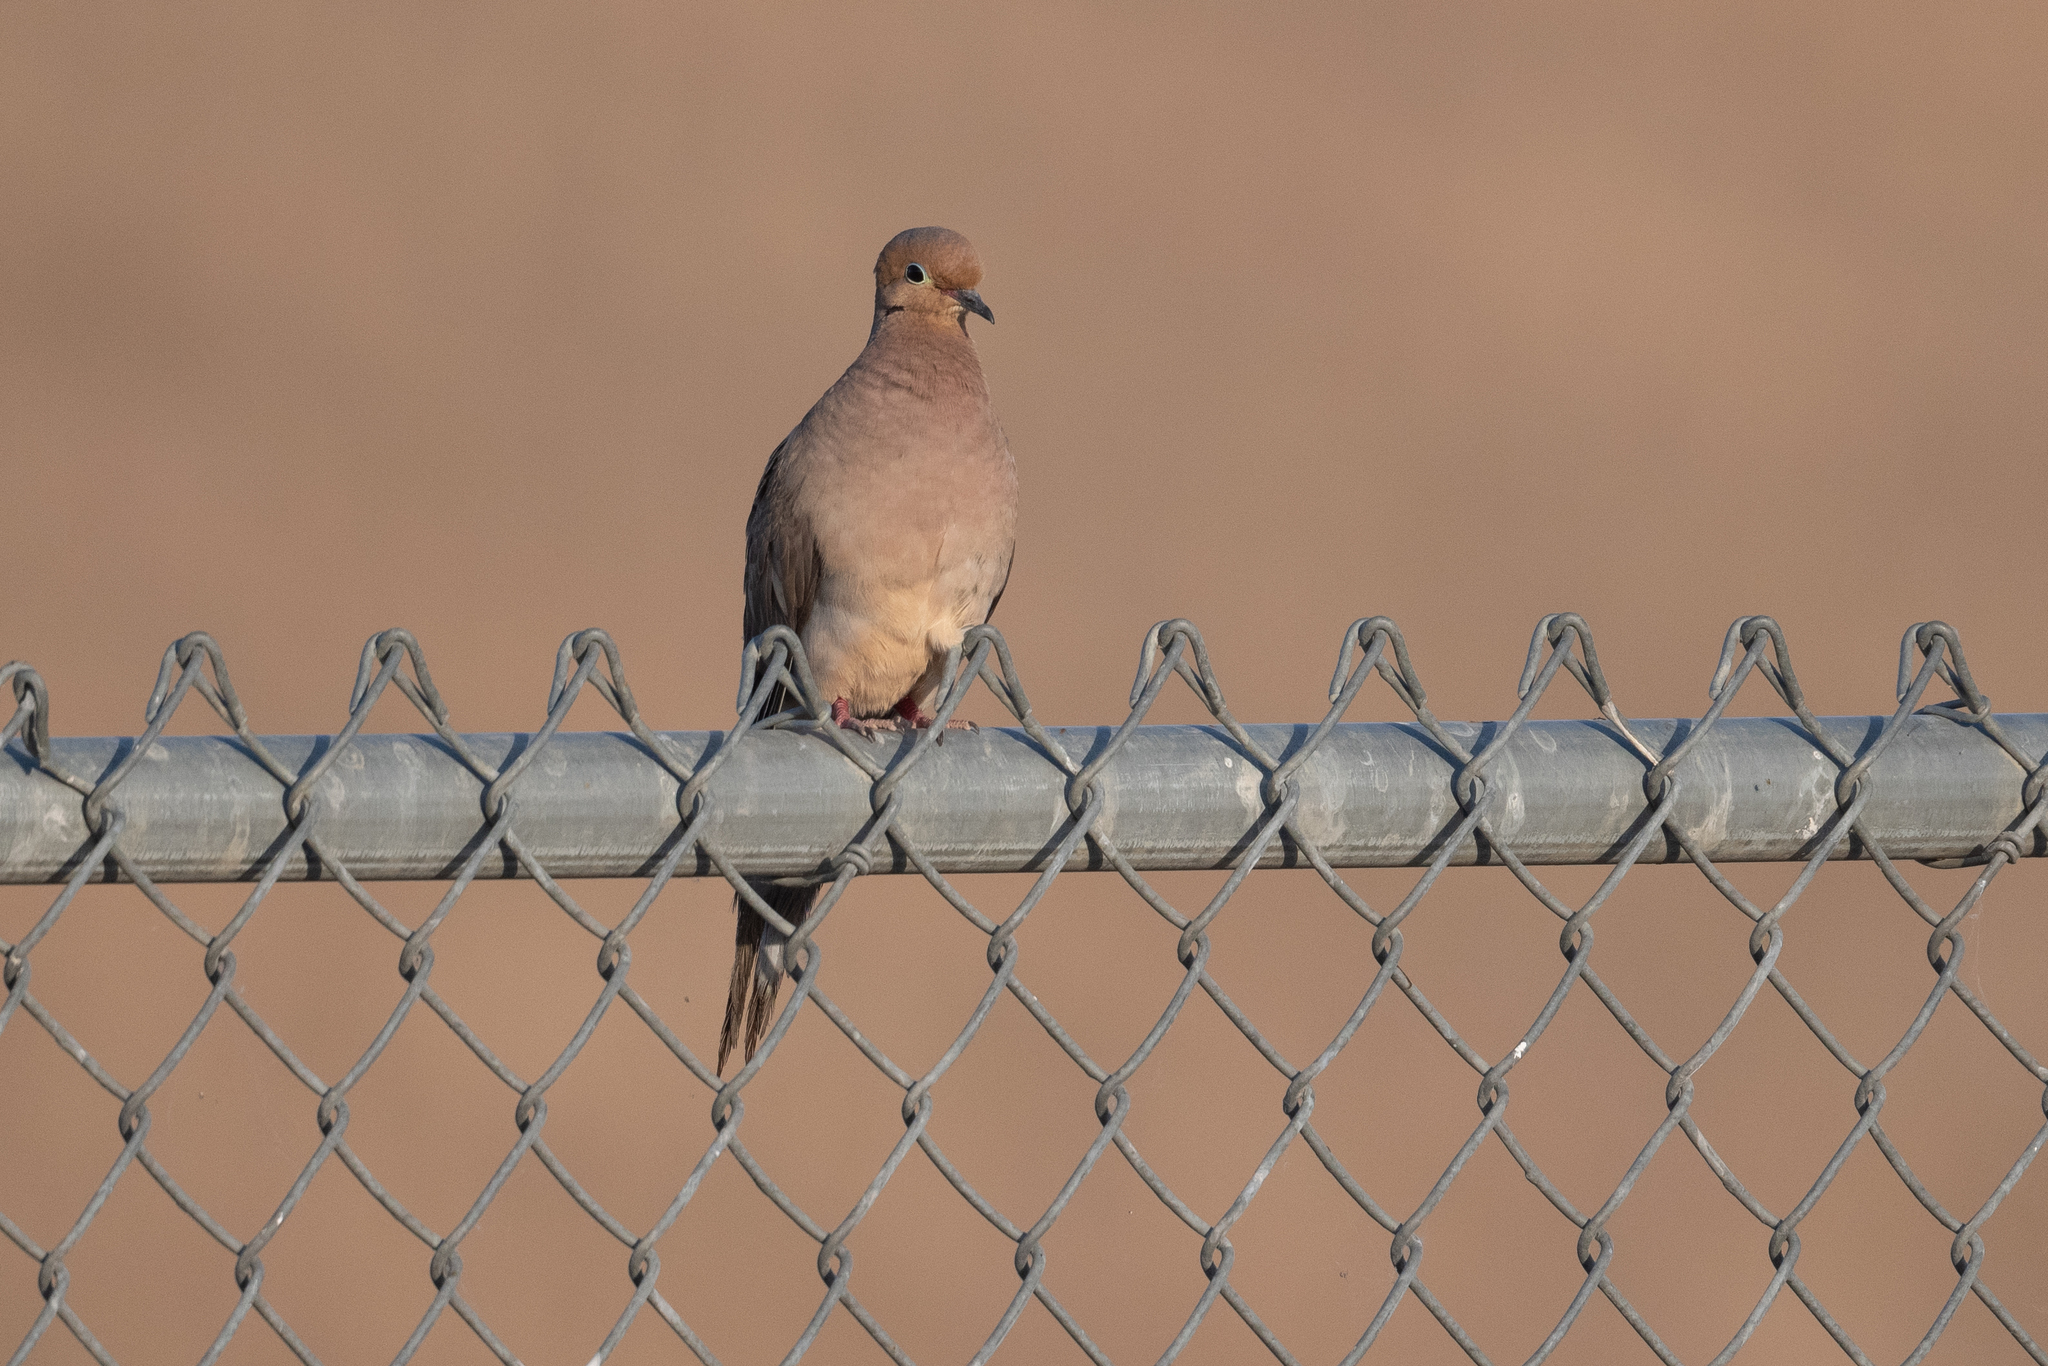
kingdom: Animalia
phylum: Chordata
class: Aves
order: Columbiformes
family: Columbidae
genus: Zenaida
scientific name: Zenaida macroura
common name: Mourning dove
